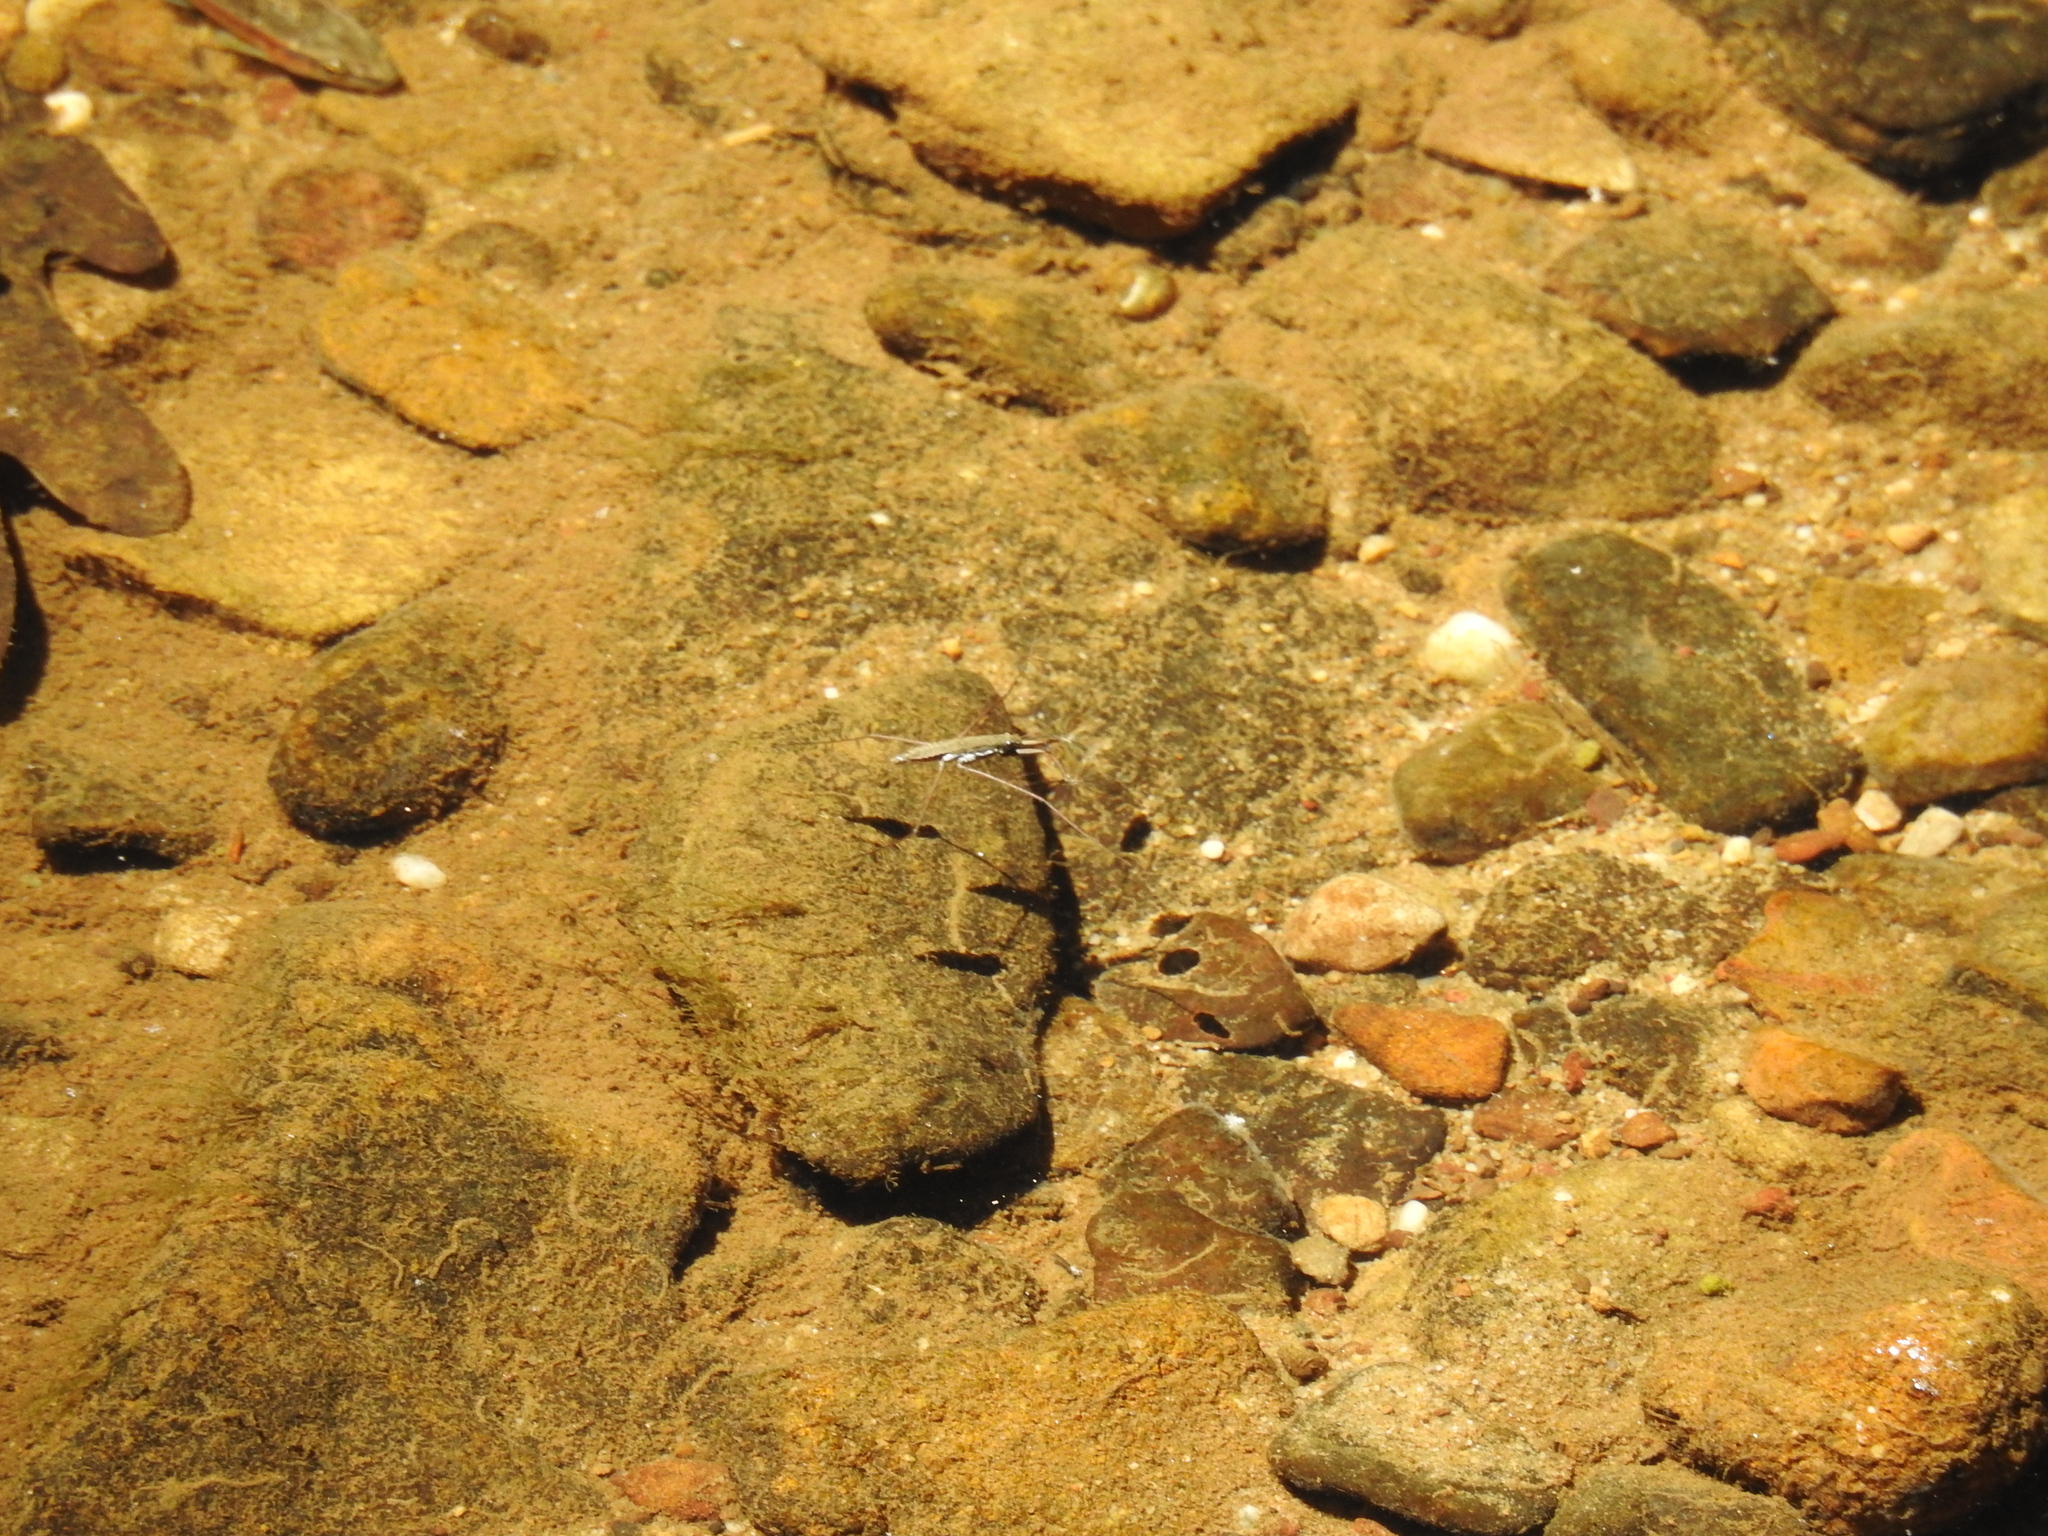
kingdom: Animalia
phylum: Chordata
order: Cypriniformes
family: Cyprinidae
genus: Rhinichthys
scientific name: Rhinichthys obtusus
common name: Western blacknose dace
